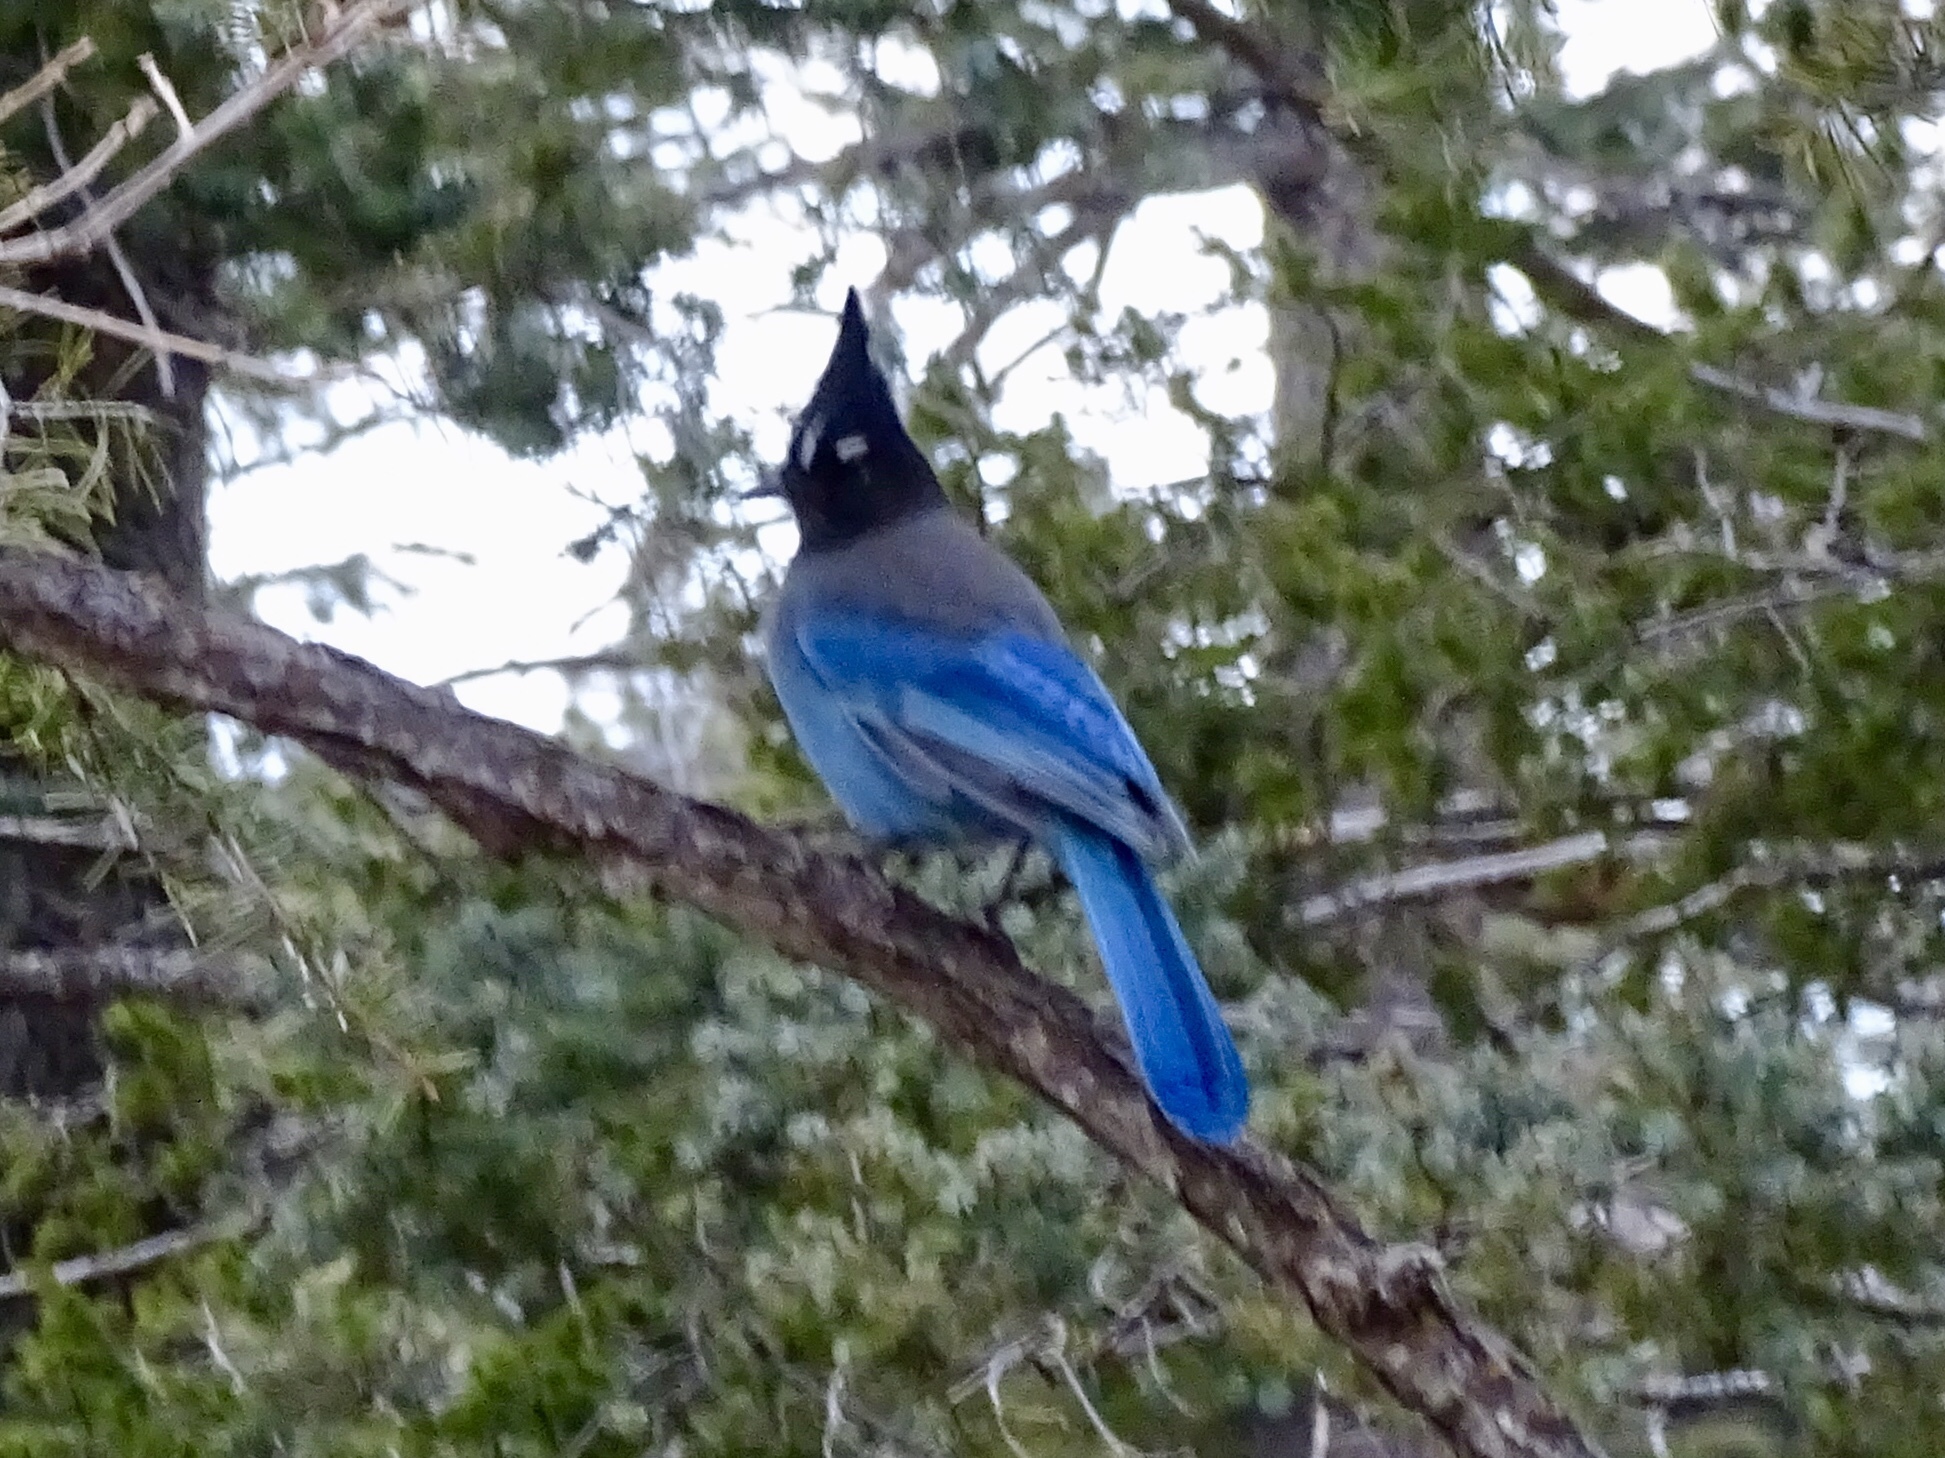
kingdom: Animalia
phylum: Chordata
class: Aves
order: Passeriformes
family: Corvidae
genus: Cyanocitta
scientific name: Cyanocitta stelleri
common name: Steller's jay
